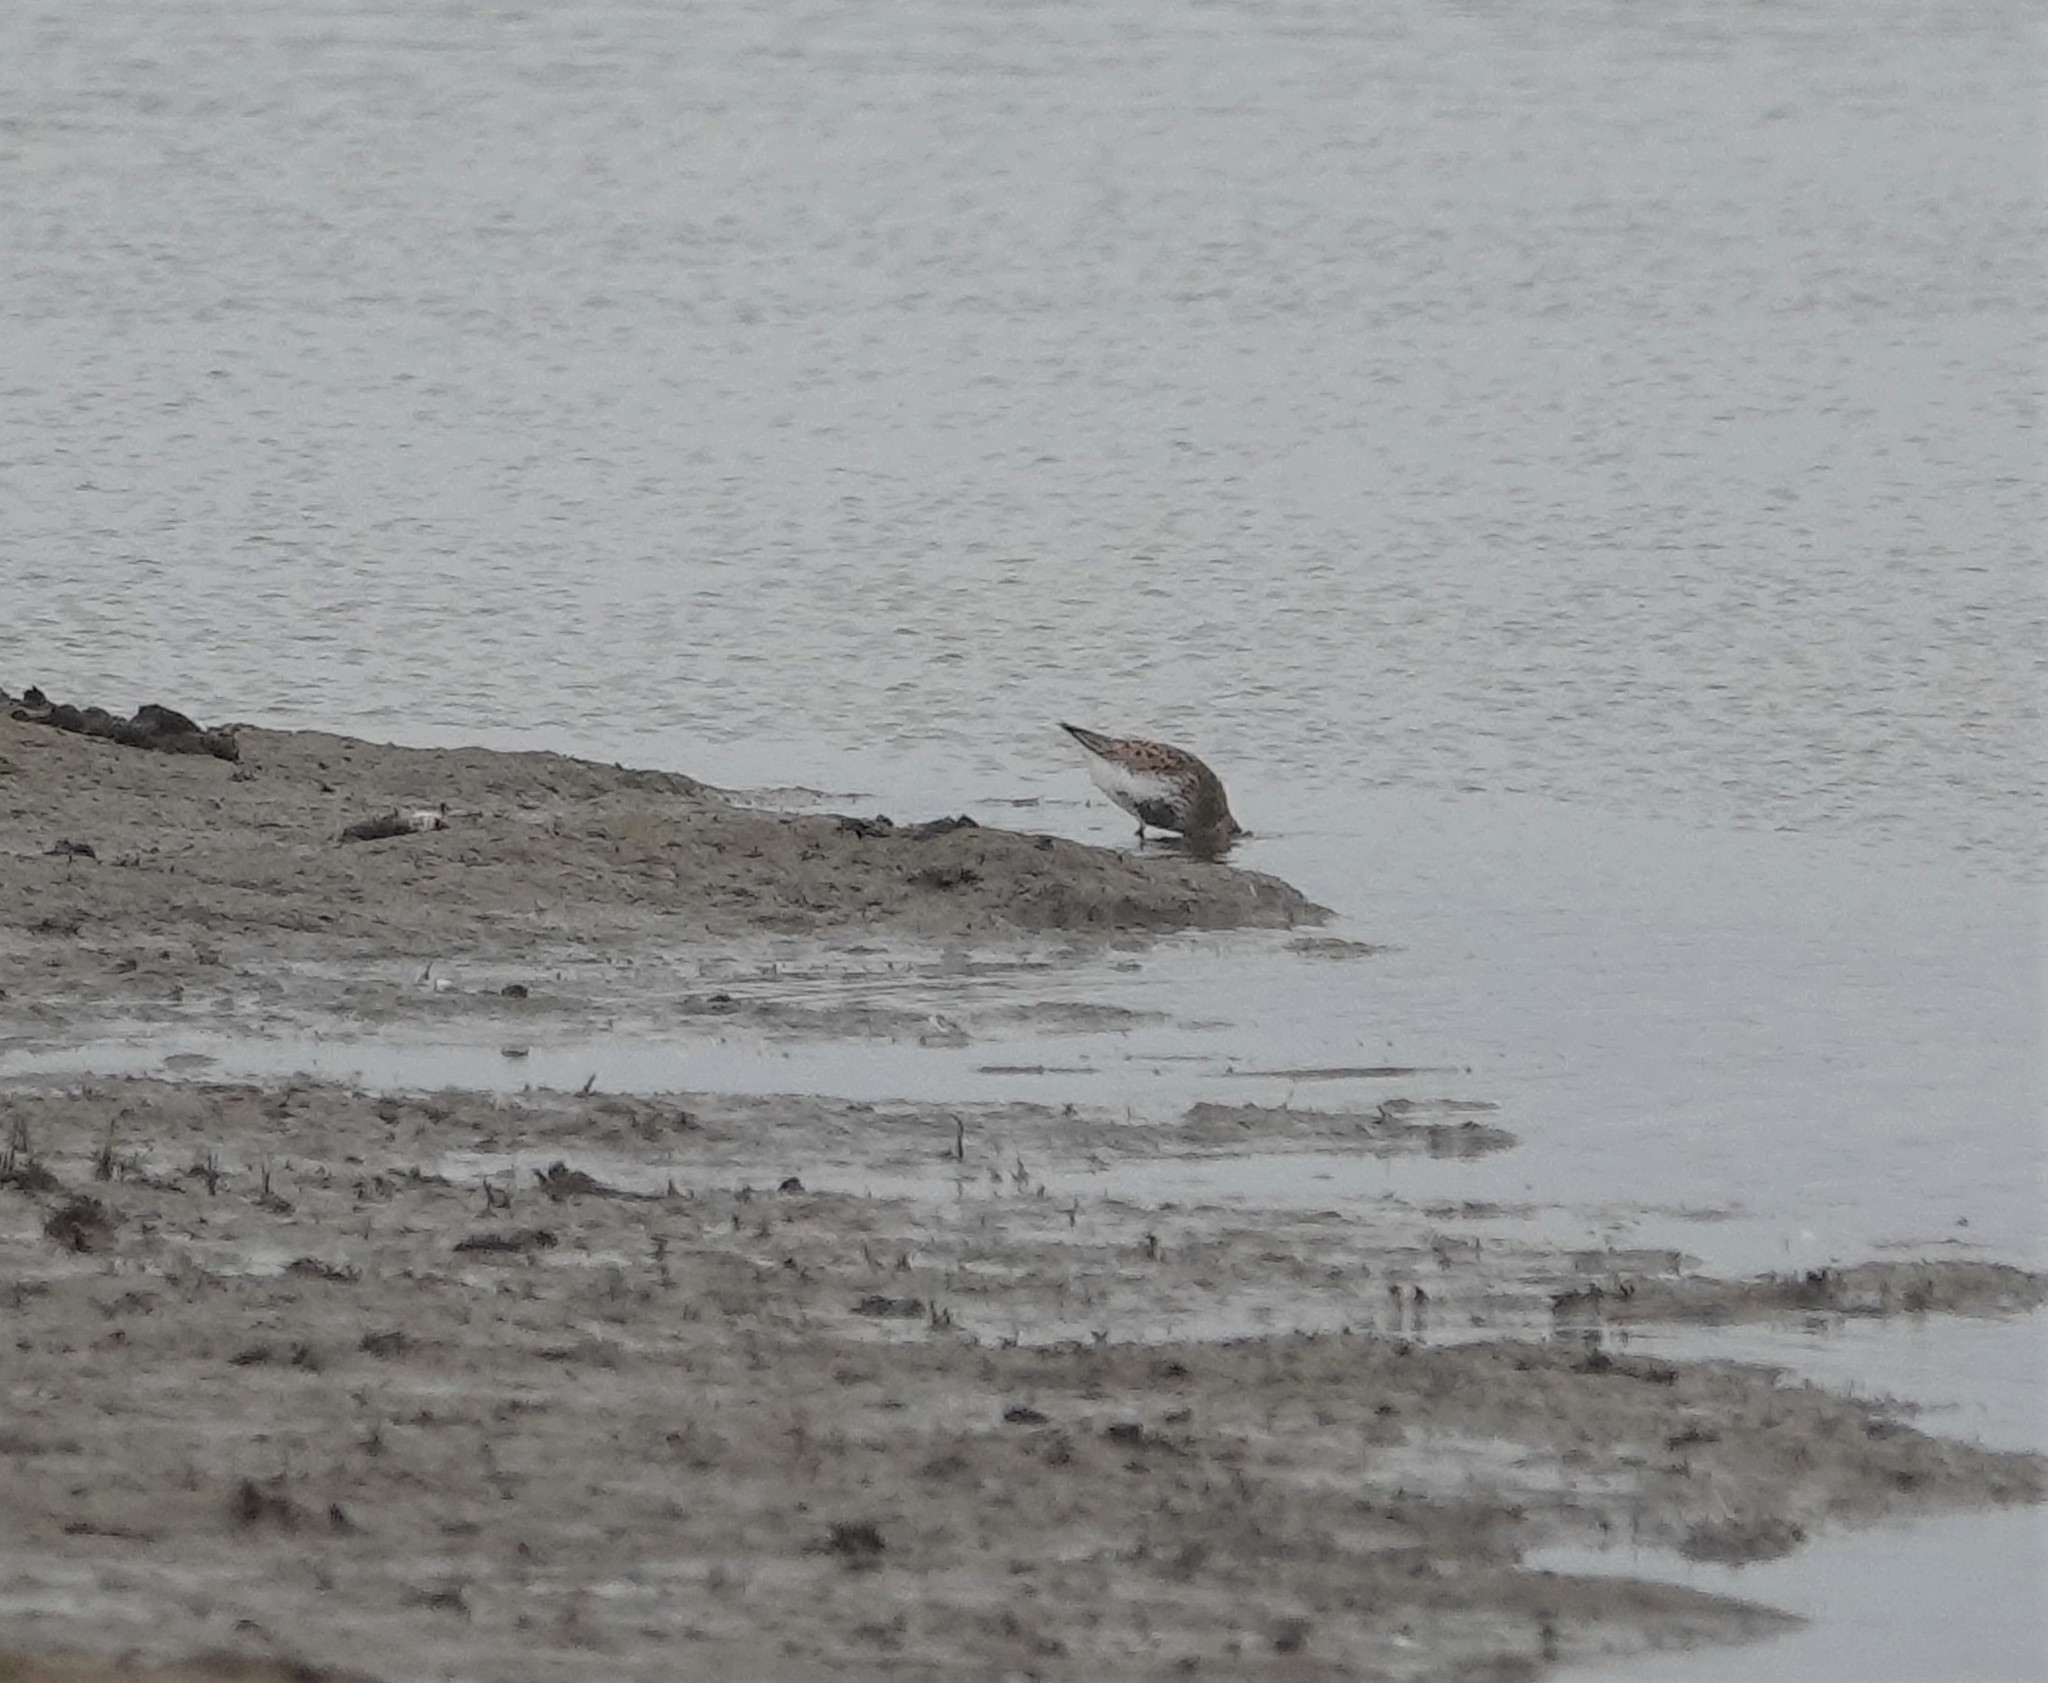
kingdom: Animalia
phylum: Chordata
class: Aves
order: Charadriiformes
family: Scolopacidae
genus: Calidris
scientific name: Calidris alpina
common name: Dunlin
